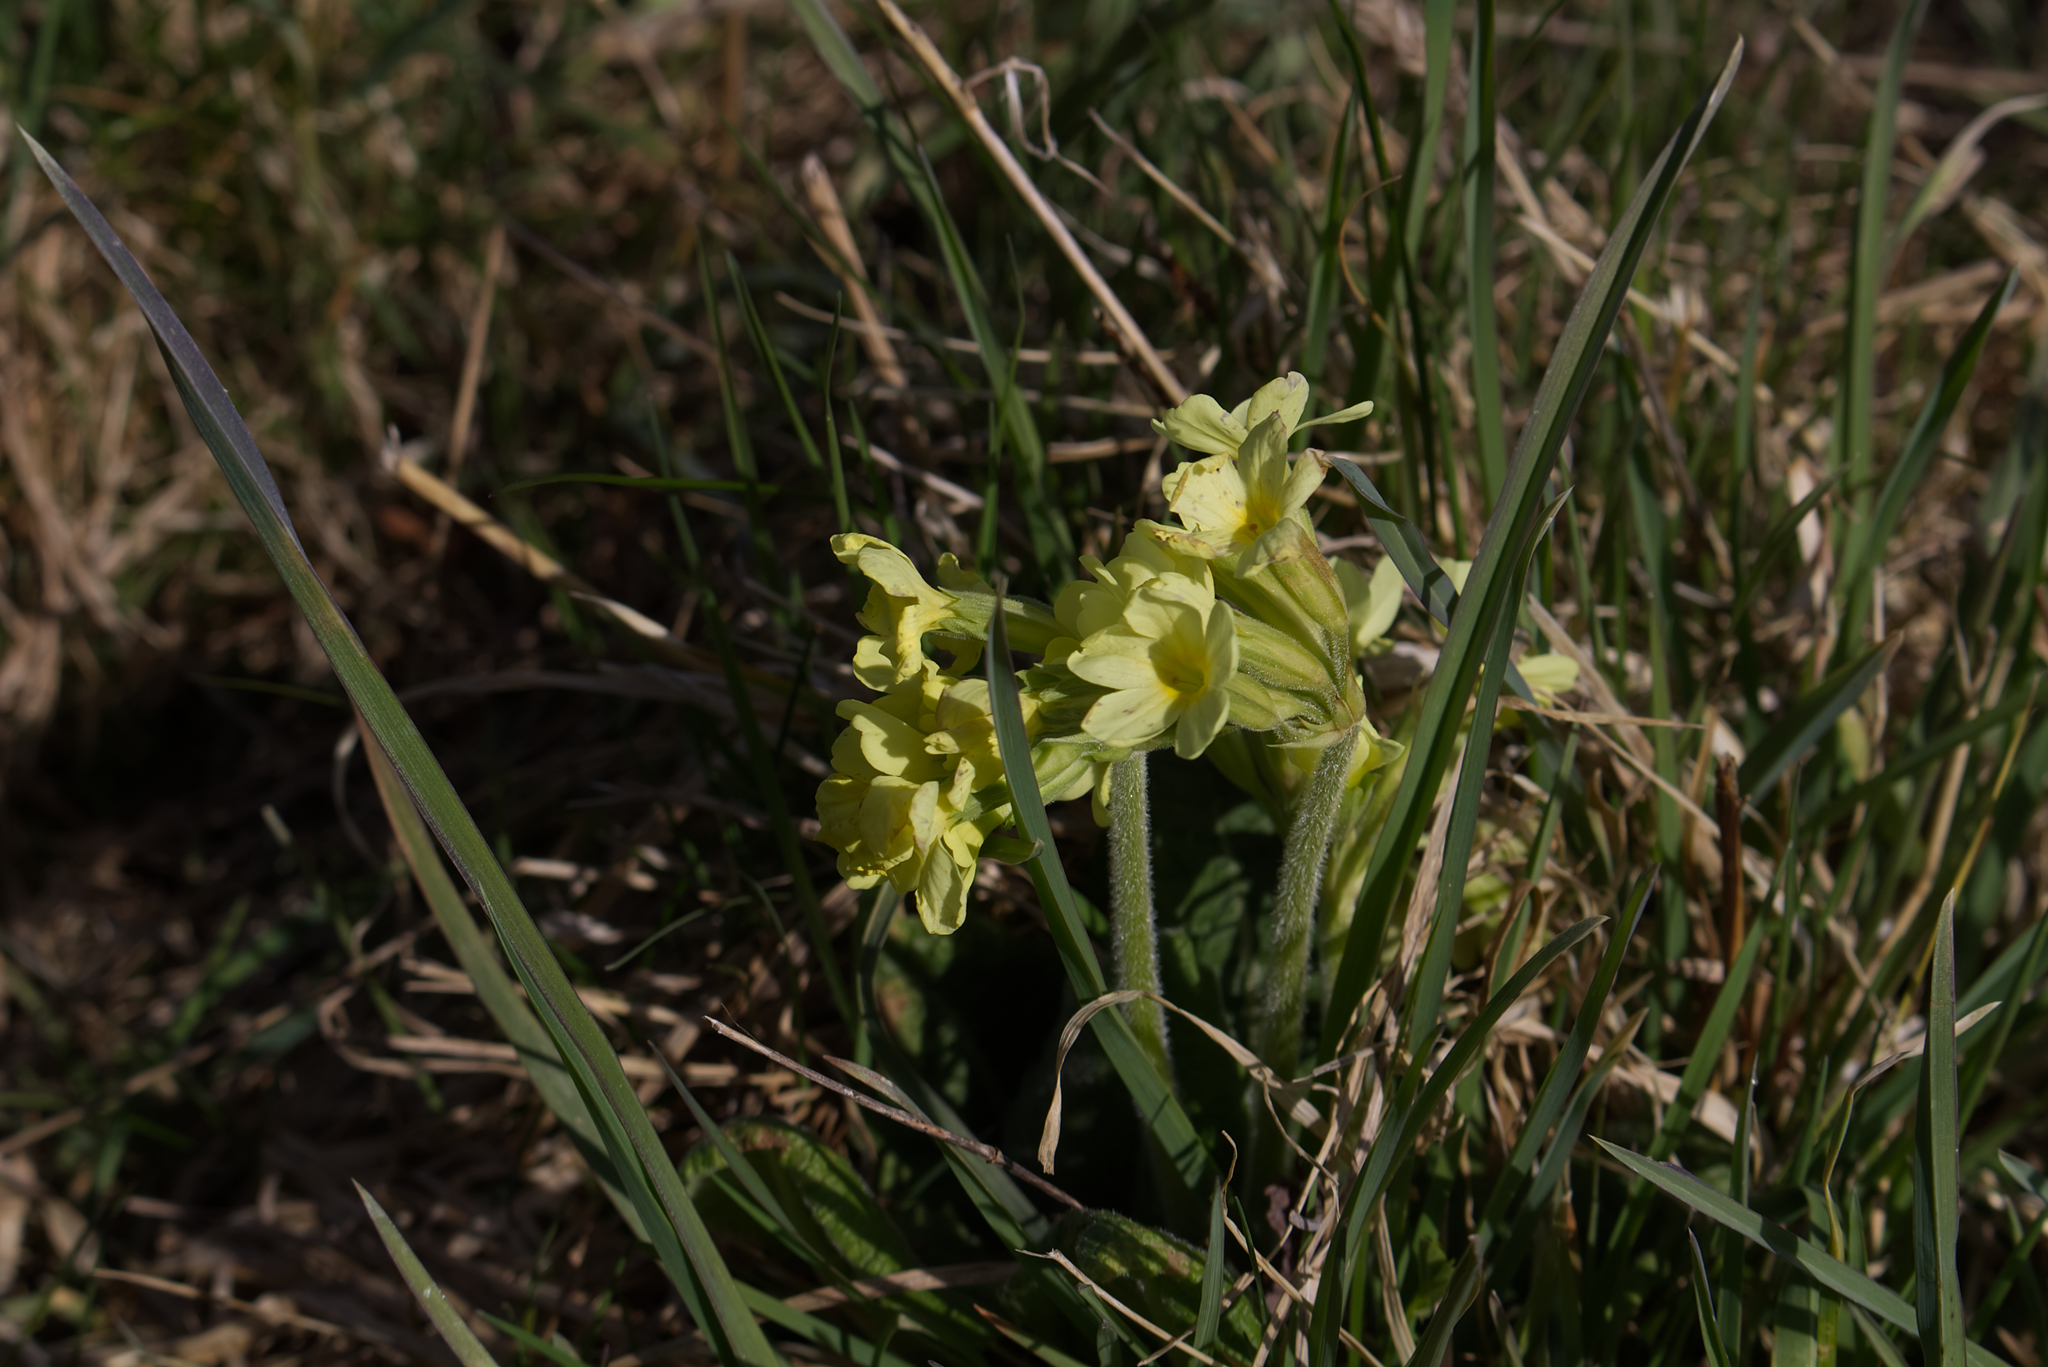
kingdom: Plantae
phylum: Tracheophyta
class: Magnoliopsida
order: Ericales
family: Primulaceae
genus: Primula
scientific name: Primula elatior
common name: Oxlip
